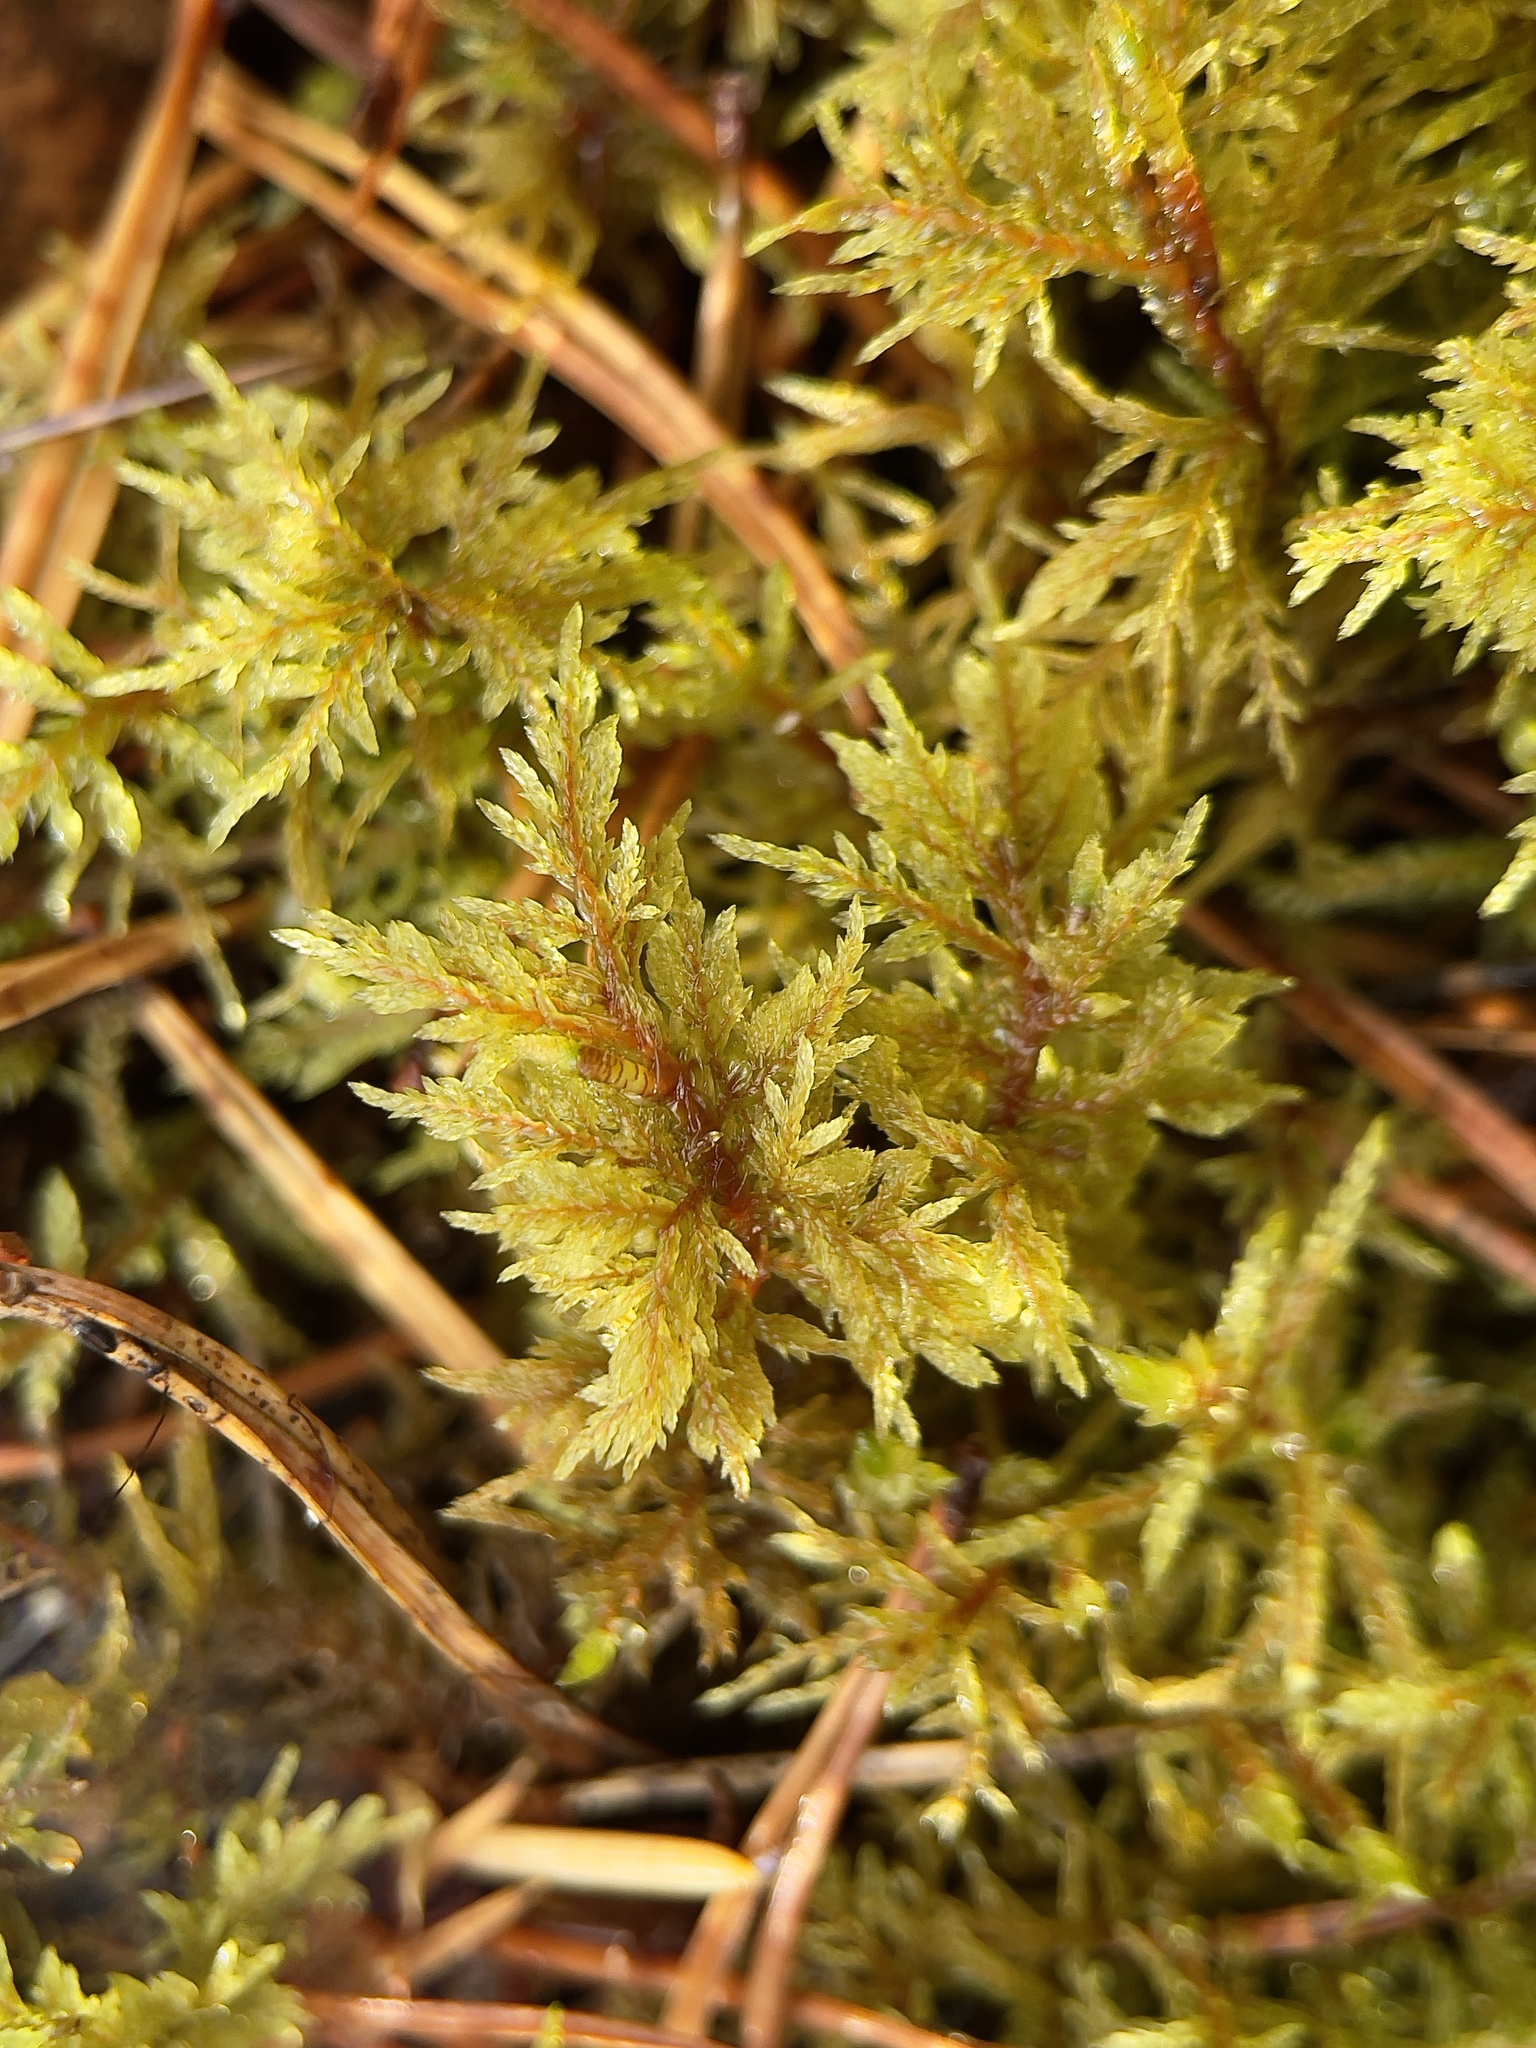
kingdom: Plantae
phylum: Bryophyta
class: Bryopsida
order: Hypnales
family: Hylocomiaceae
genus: Hylocomium
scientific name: Hylocomium splendens
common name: Stairstep moss
